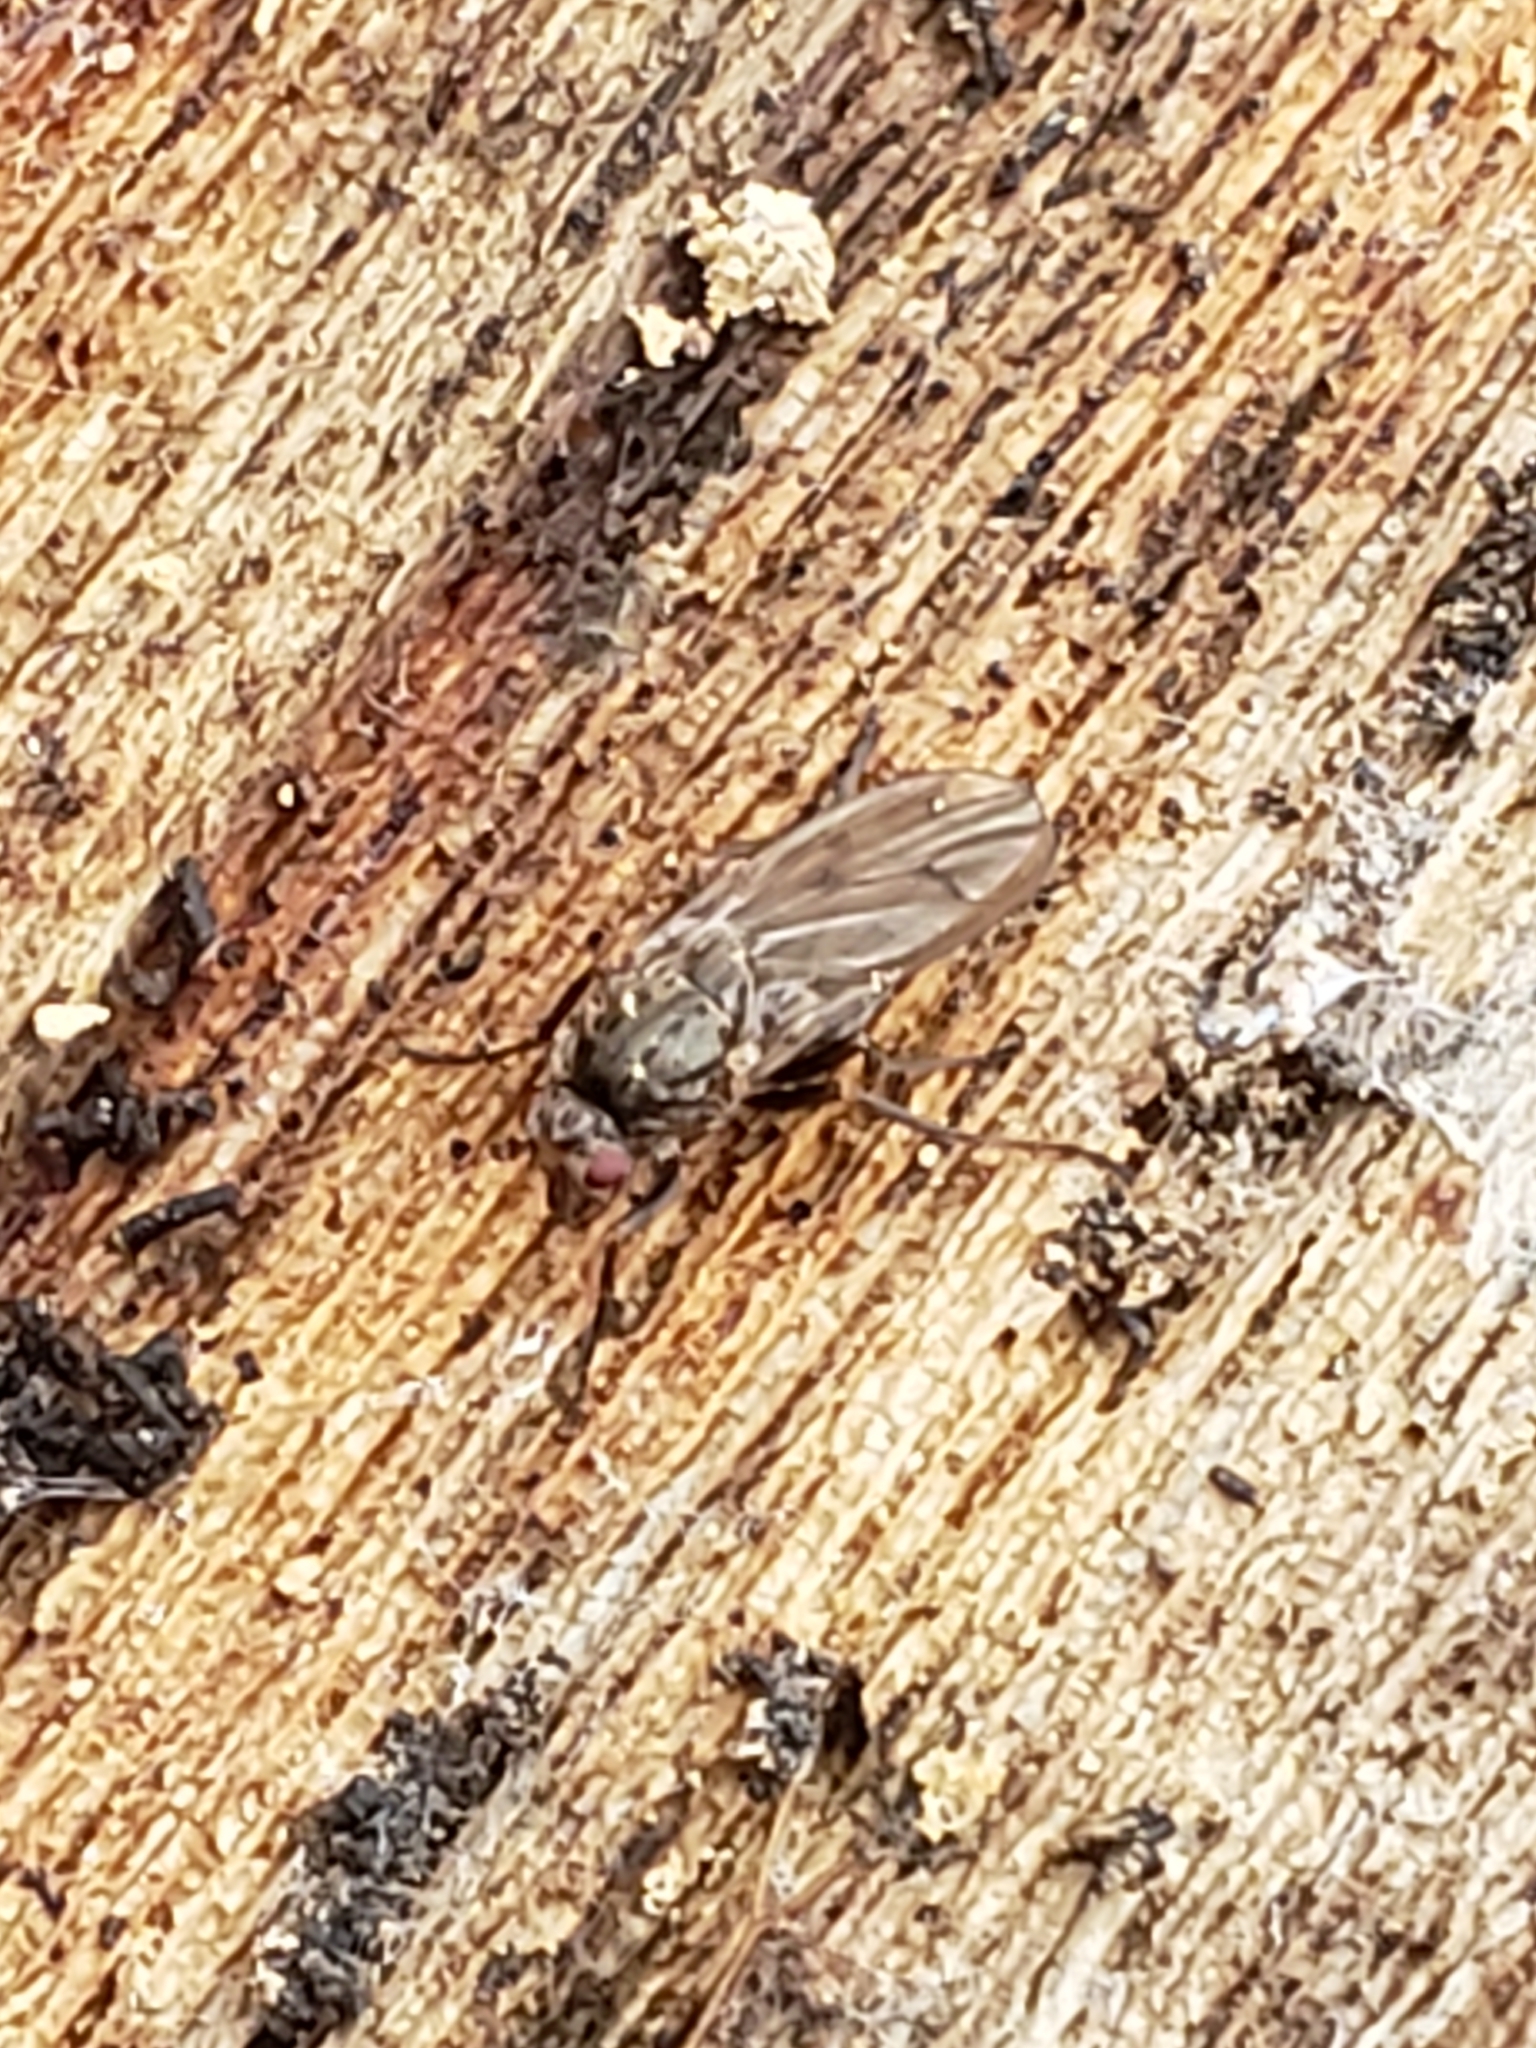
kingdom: Animalia
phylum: Arthropoda
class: Insecta
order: Diptera
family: Heleomyzidae
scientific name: Heleomyzidae
